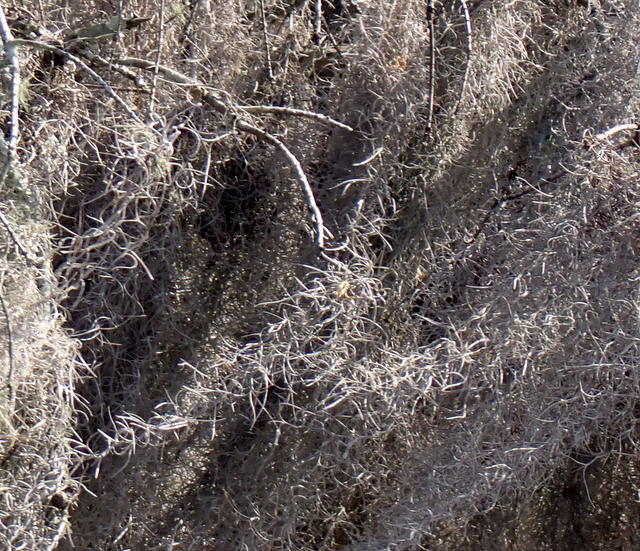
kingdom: Plantae
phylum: Tracheophyta
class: Liliopsida
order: Poales
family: Bromeliaceae
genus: Tillandsia
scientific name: Tillandsia usneoides
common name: Spanish moss
